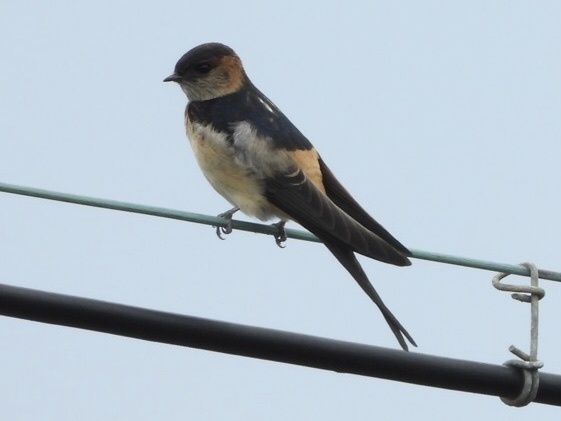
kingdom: Animalia
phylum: Chordata
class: Aves
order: Passeriformes
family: Hirundinidae
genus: Cecropis
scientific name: Cecropis daurica
